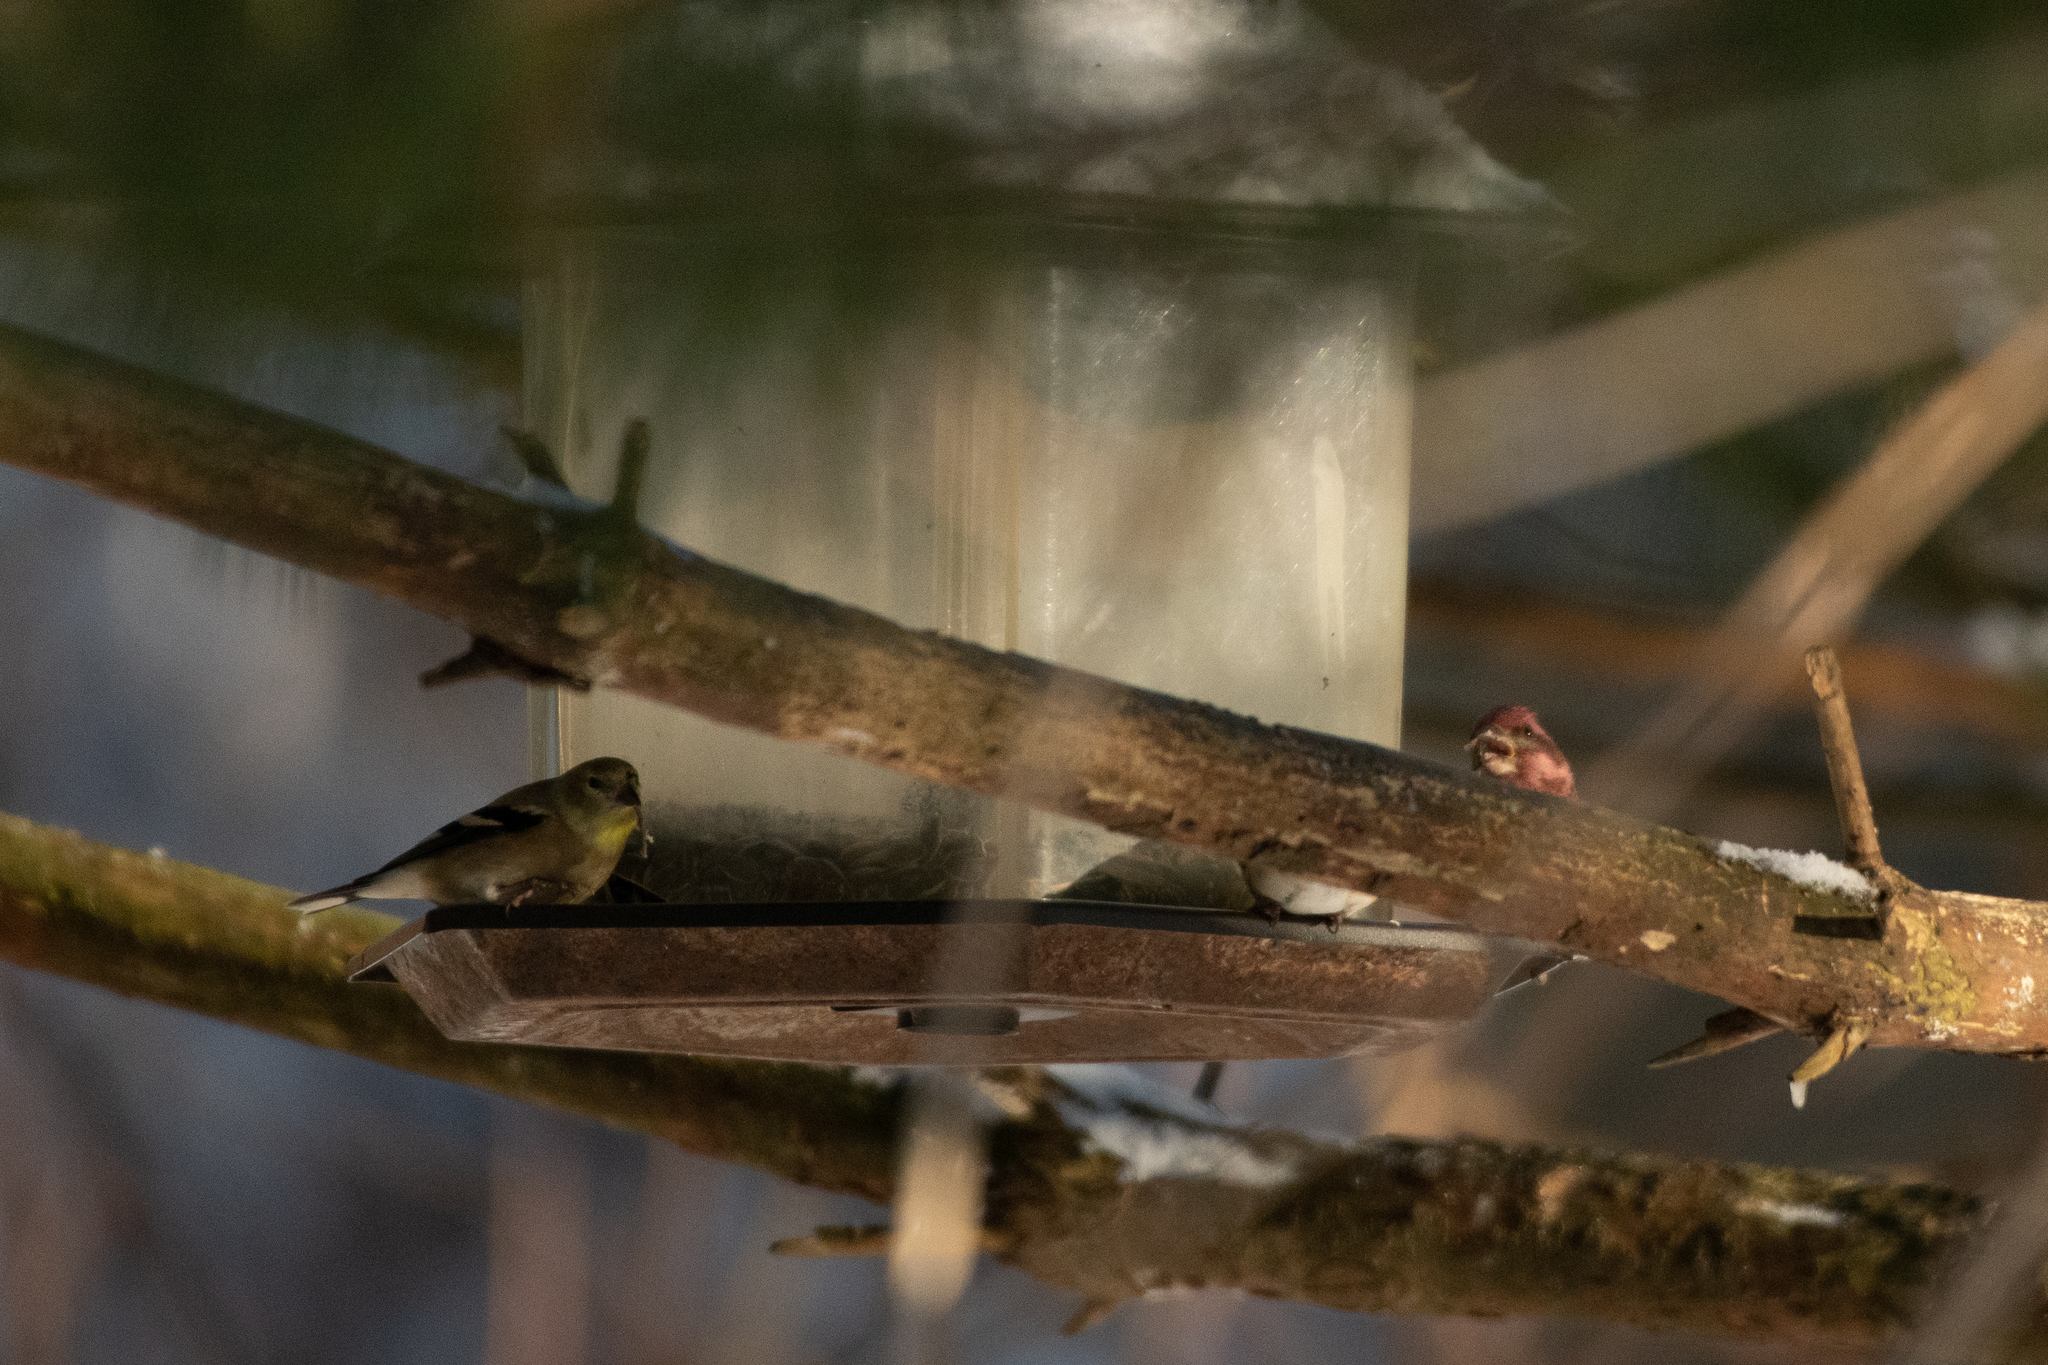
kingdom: Animalia
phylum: Chordata
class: Aves
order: Passeriformes
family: Fringillidae
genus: Spinus
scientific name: Spinus tristis
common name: American goldfinch
